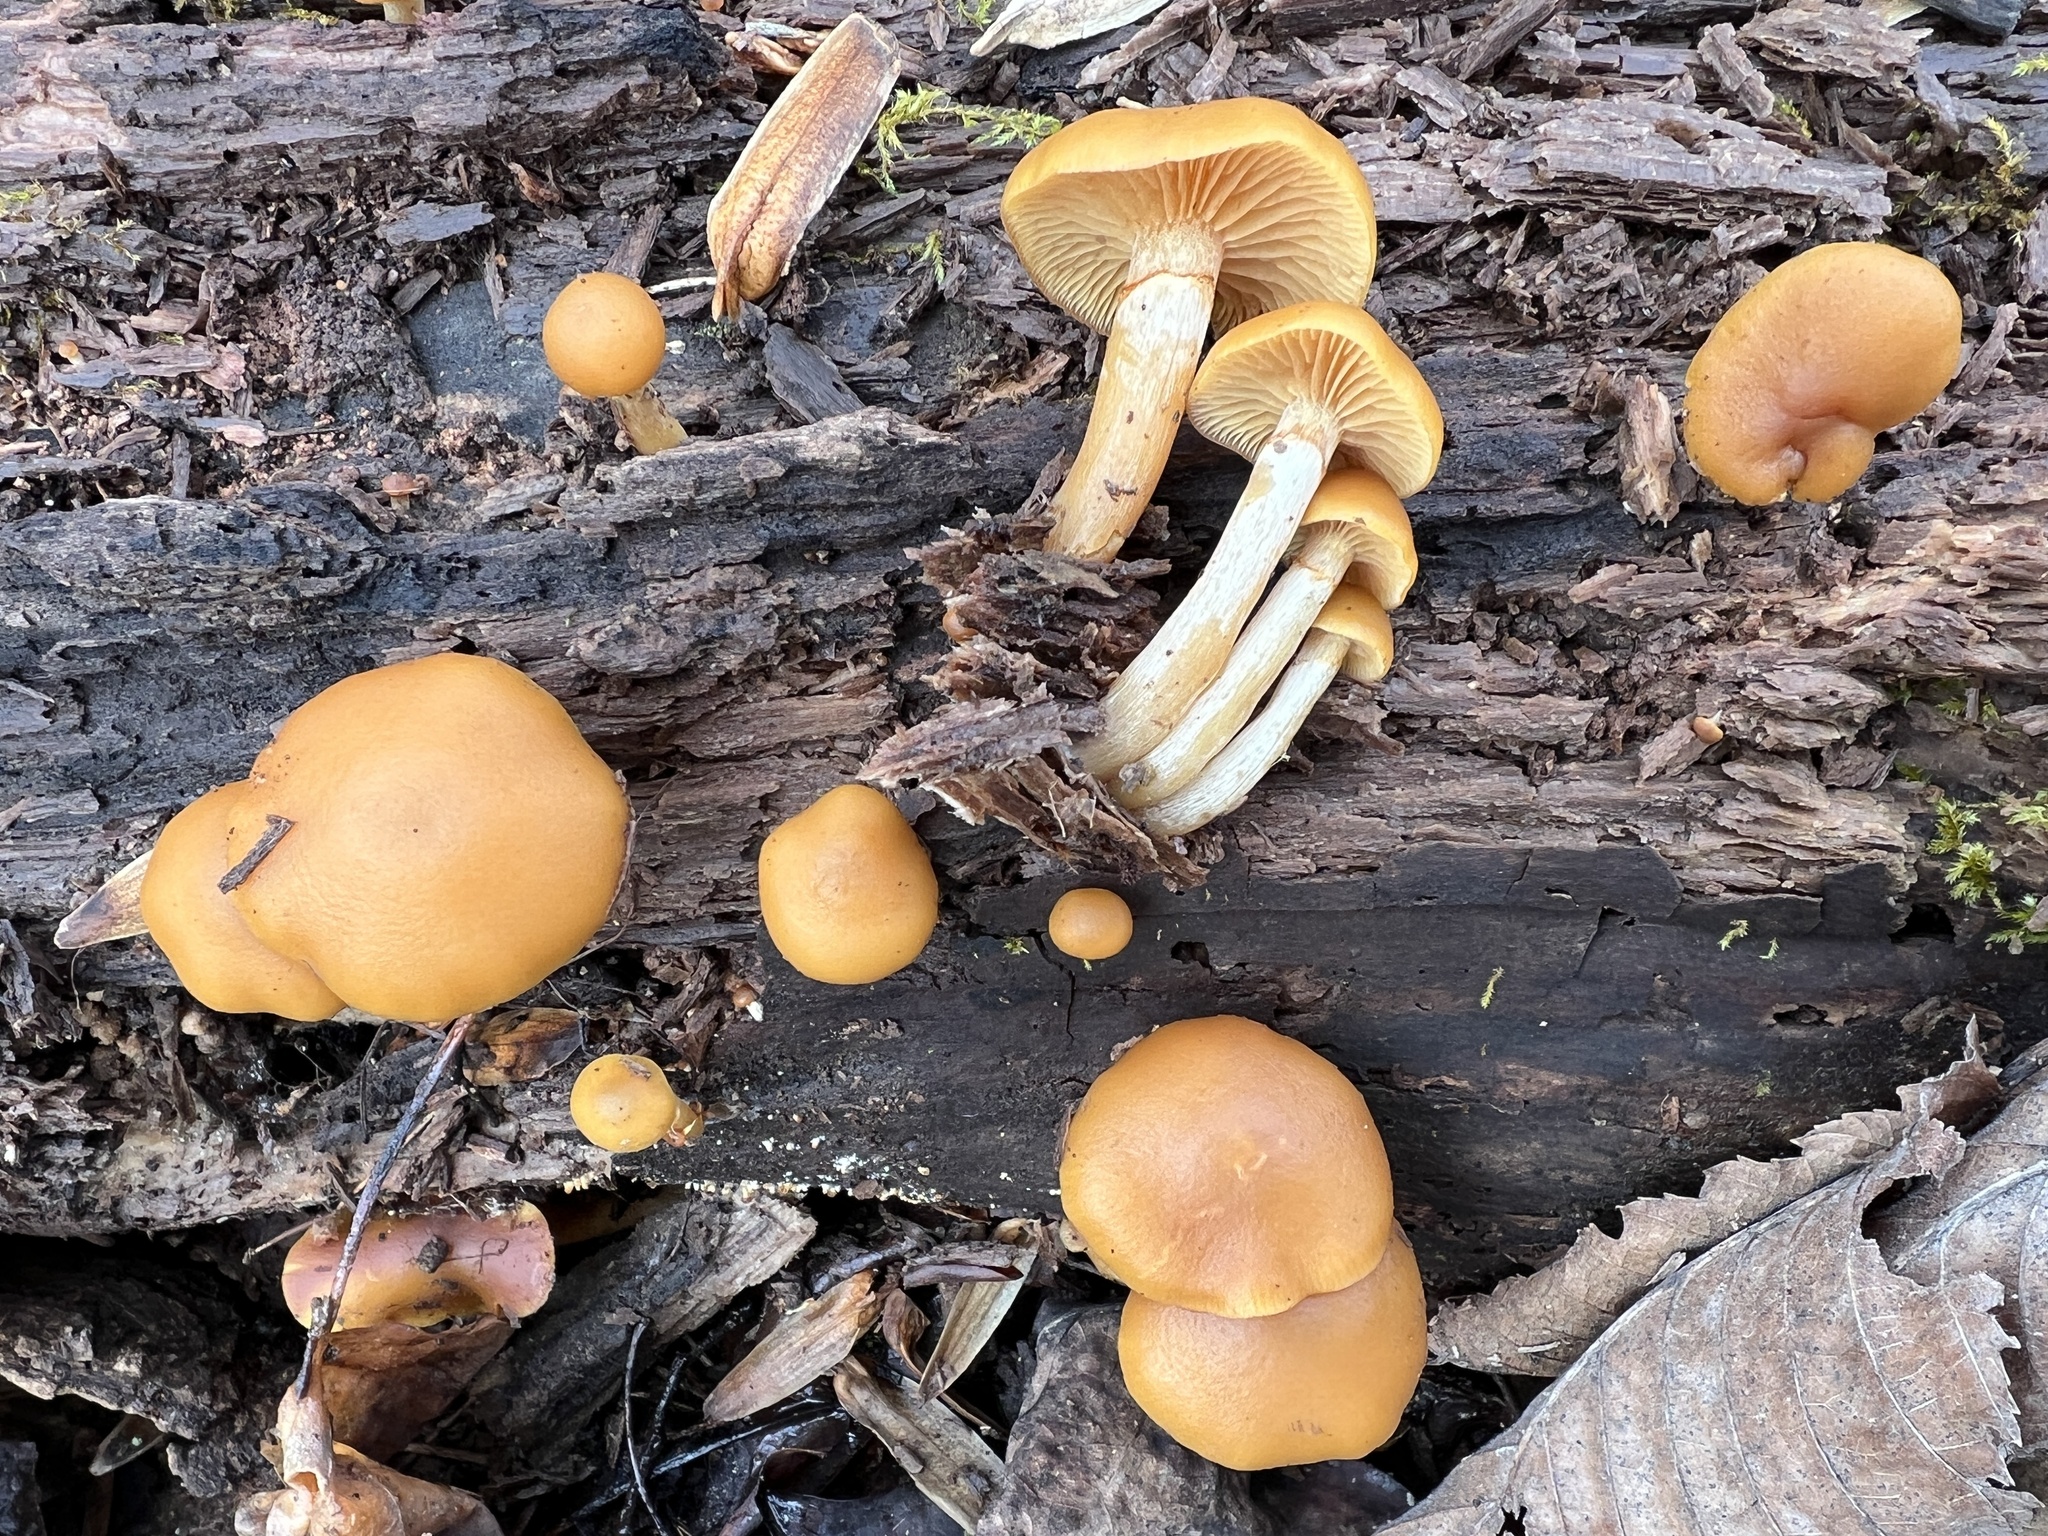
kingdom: Fungi
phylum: Basidiomycota
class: Agaricomycetes
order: Agaricales
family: Hymenogastraceae
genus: Galerina
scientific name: Galerina marginata
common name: Funeral bell
